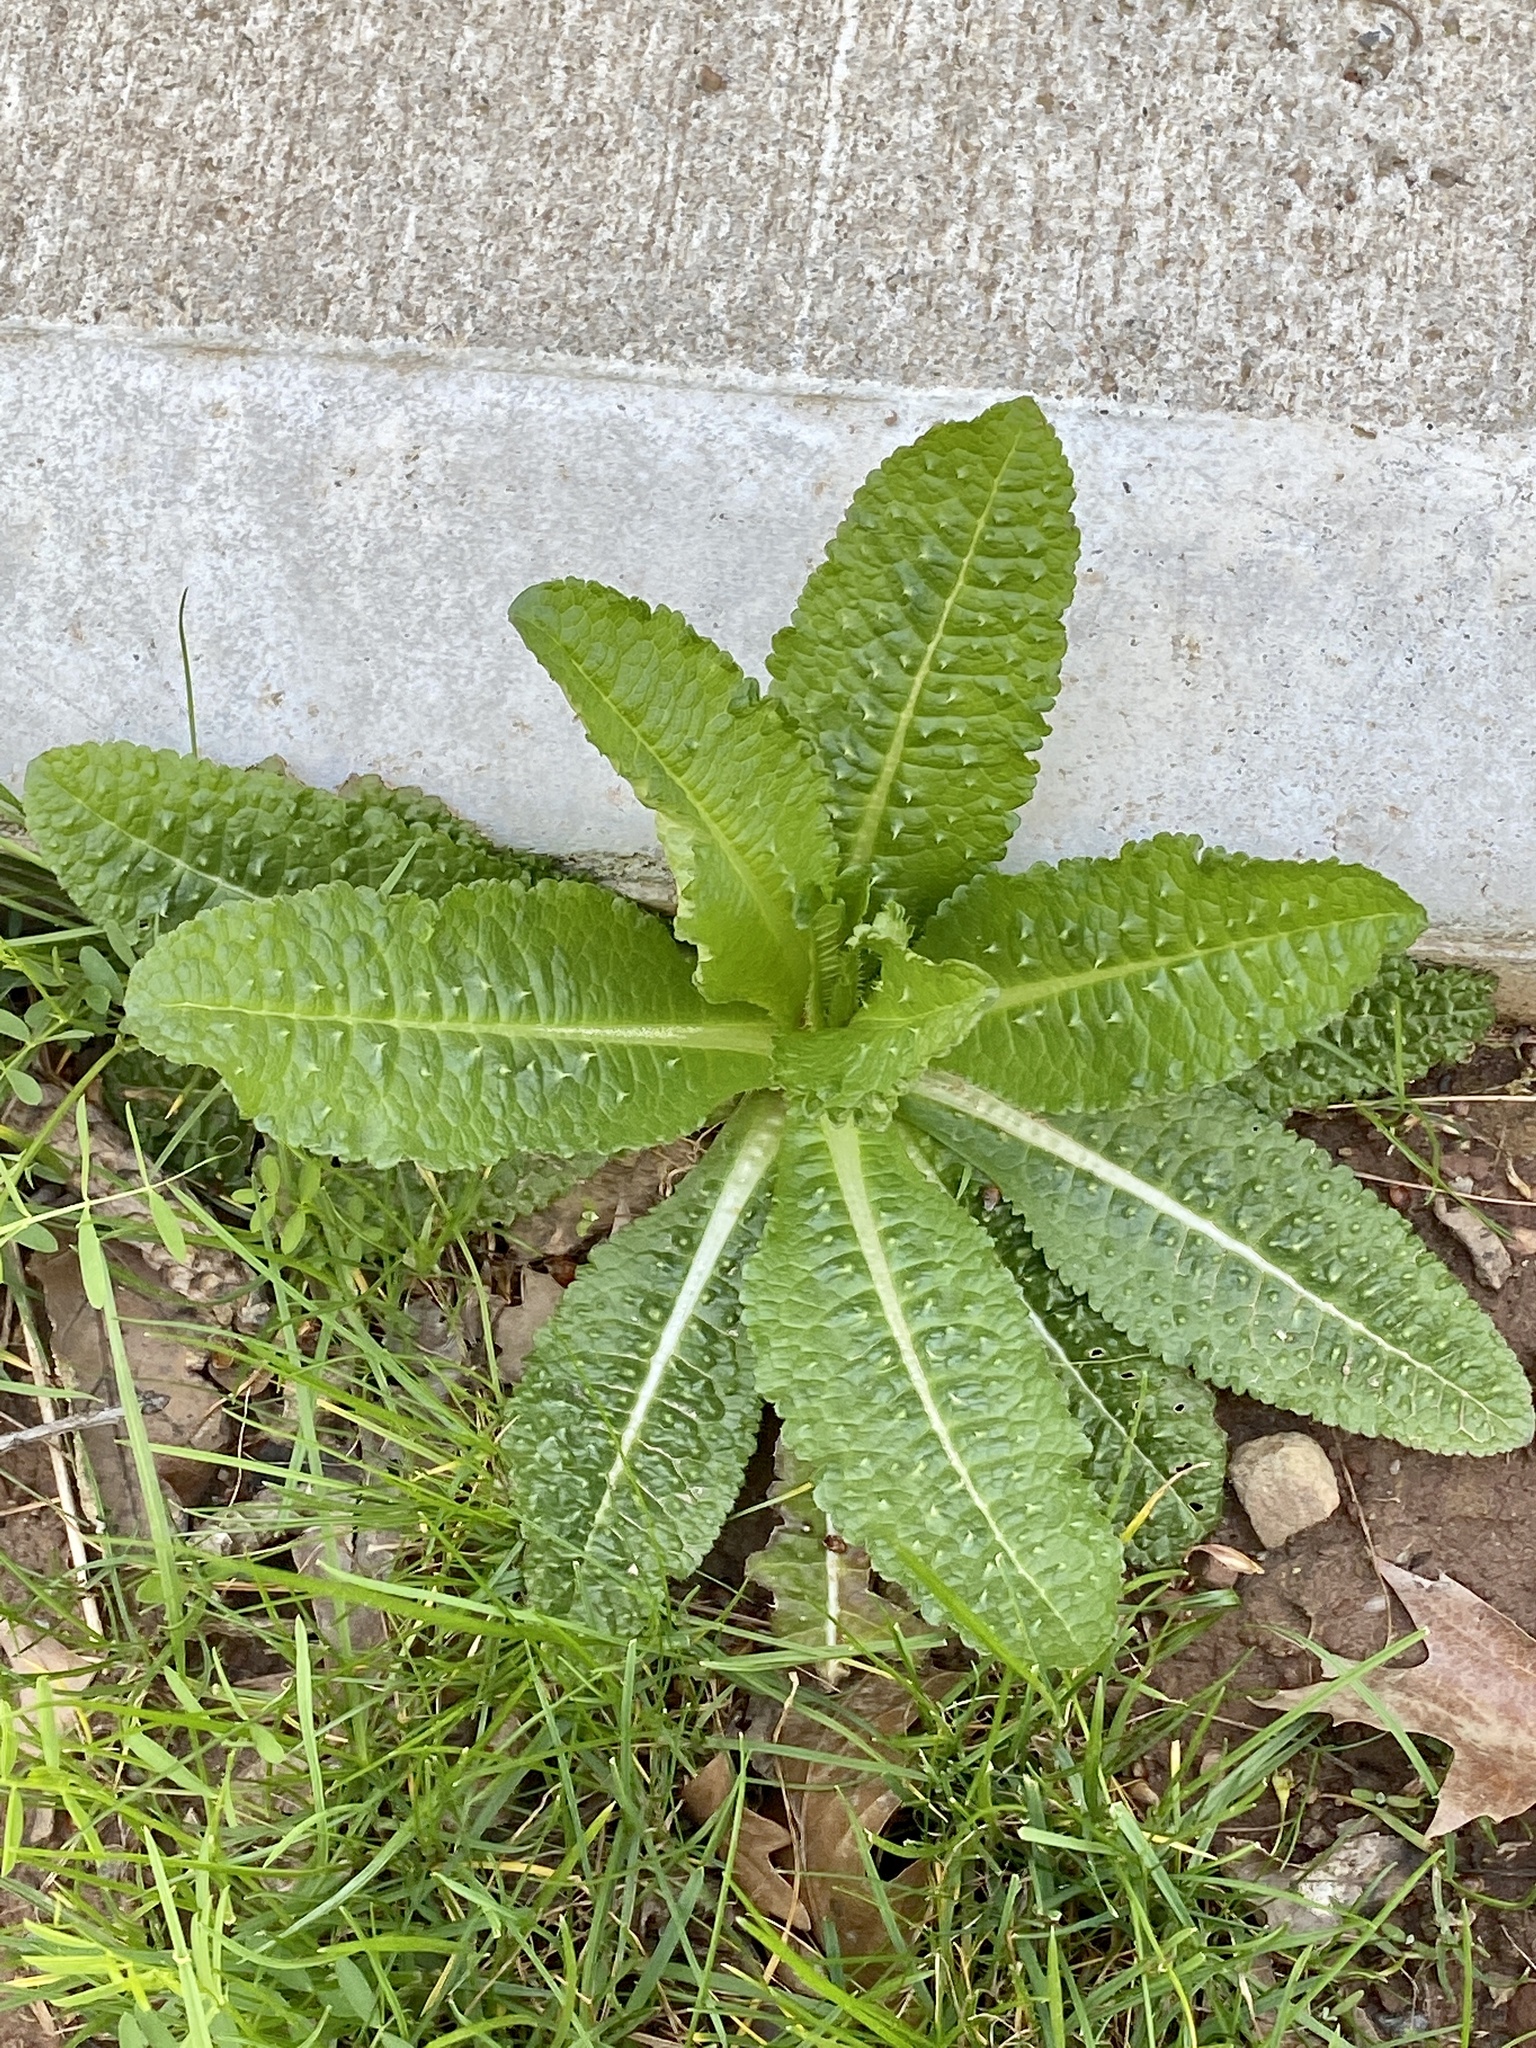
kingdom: Plantae
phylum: Tracheophyta
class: Magnoliopsida
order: Dipsacales
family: Caprifoliaceae
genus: Dipsacus
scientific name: Dipsacus fullonum
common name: Teasel
